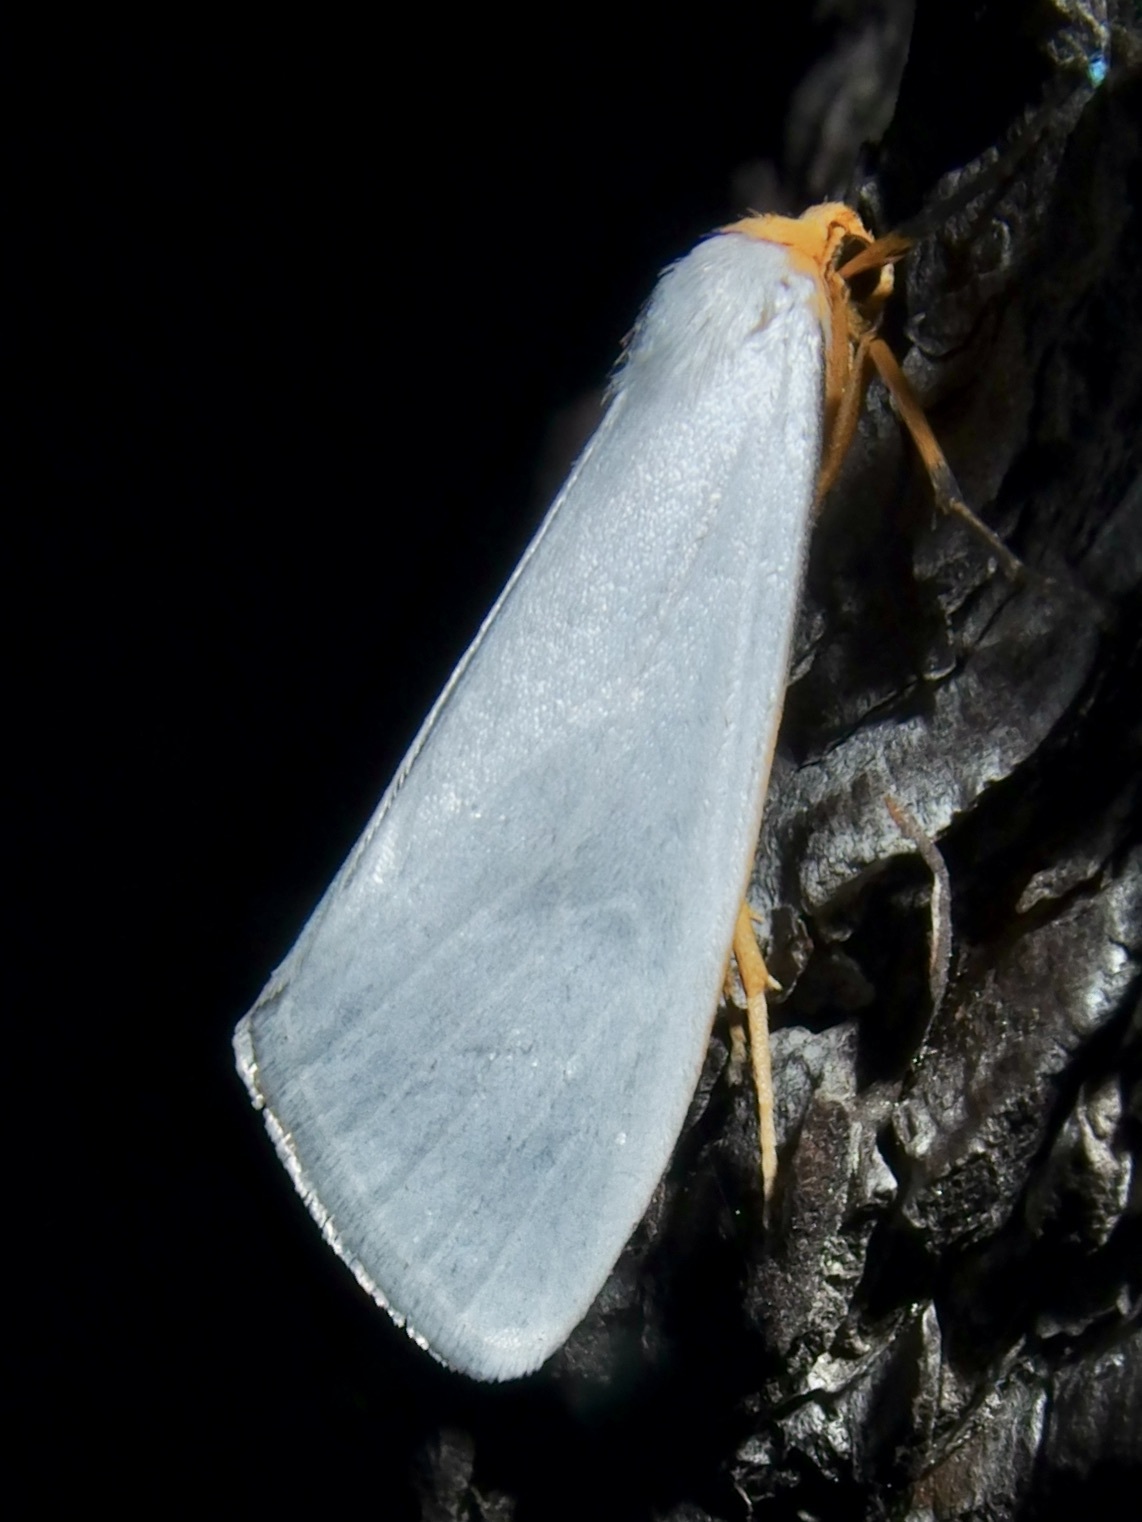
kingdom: Animalia
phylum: Arthropoda
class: Insecta
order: Lepidoptera
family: Erebidae
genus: Agylla
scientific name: Agylla septentrionalis
